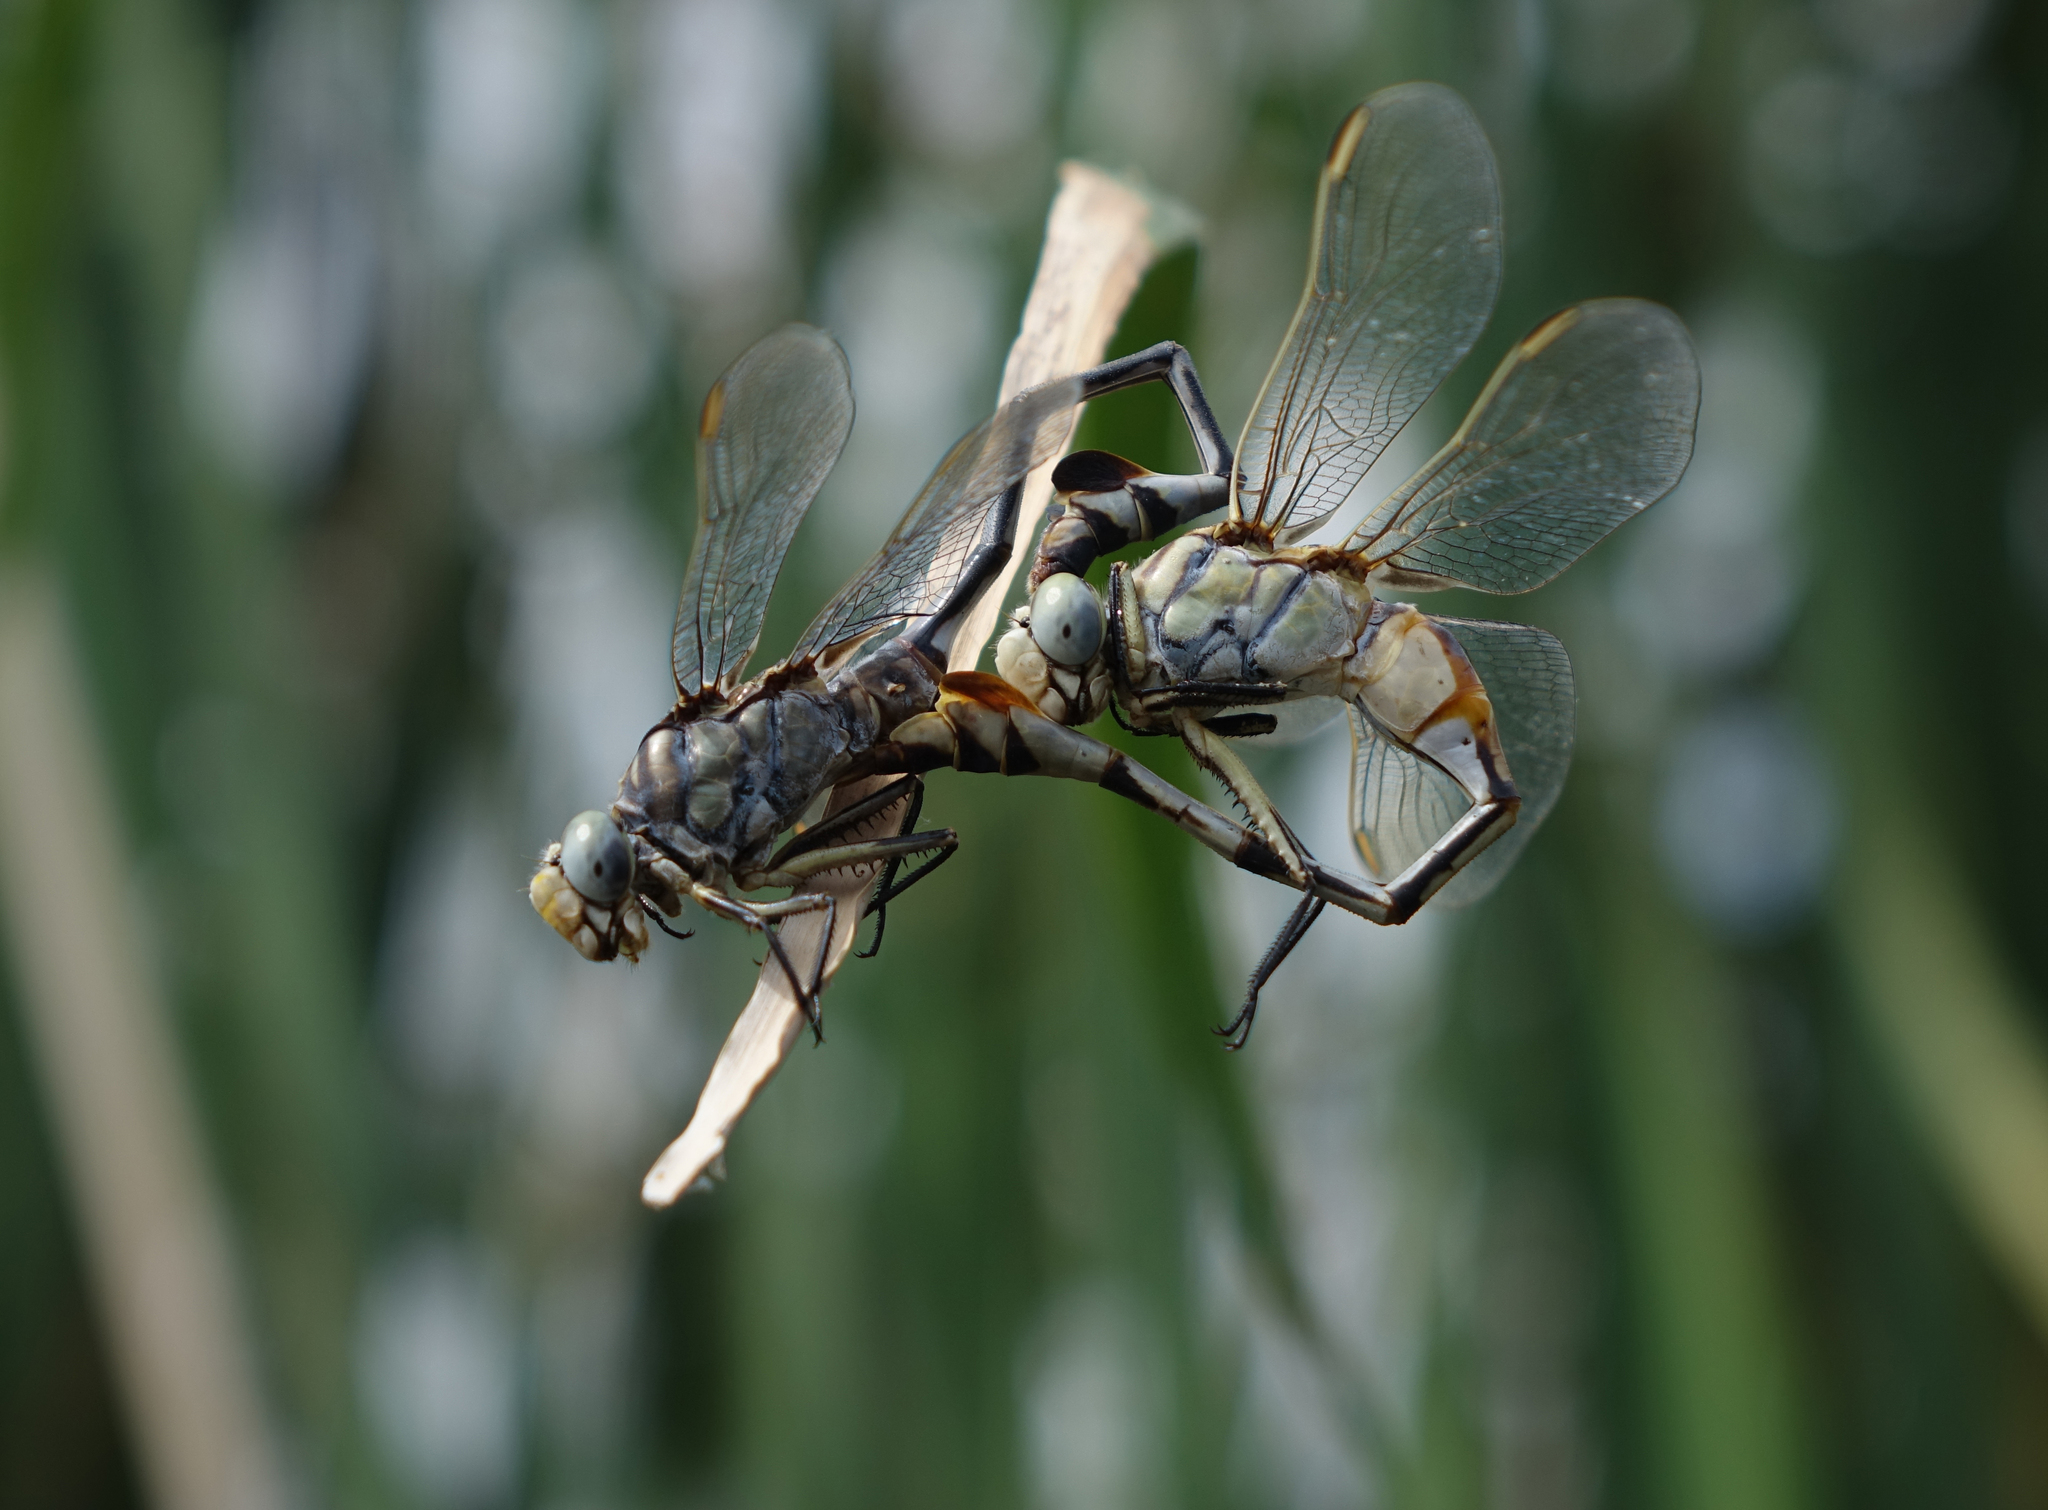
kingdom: Animalia
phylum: Arthropoda
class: Insecta
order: Odonata
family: Gomphidae
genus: Lindenia
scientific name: Lindenia tetraphylla
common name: Bladetail
